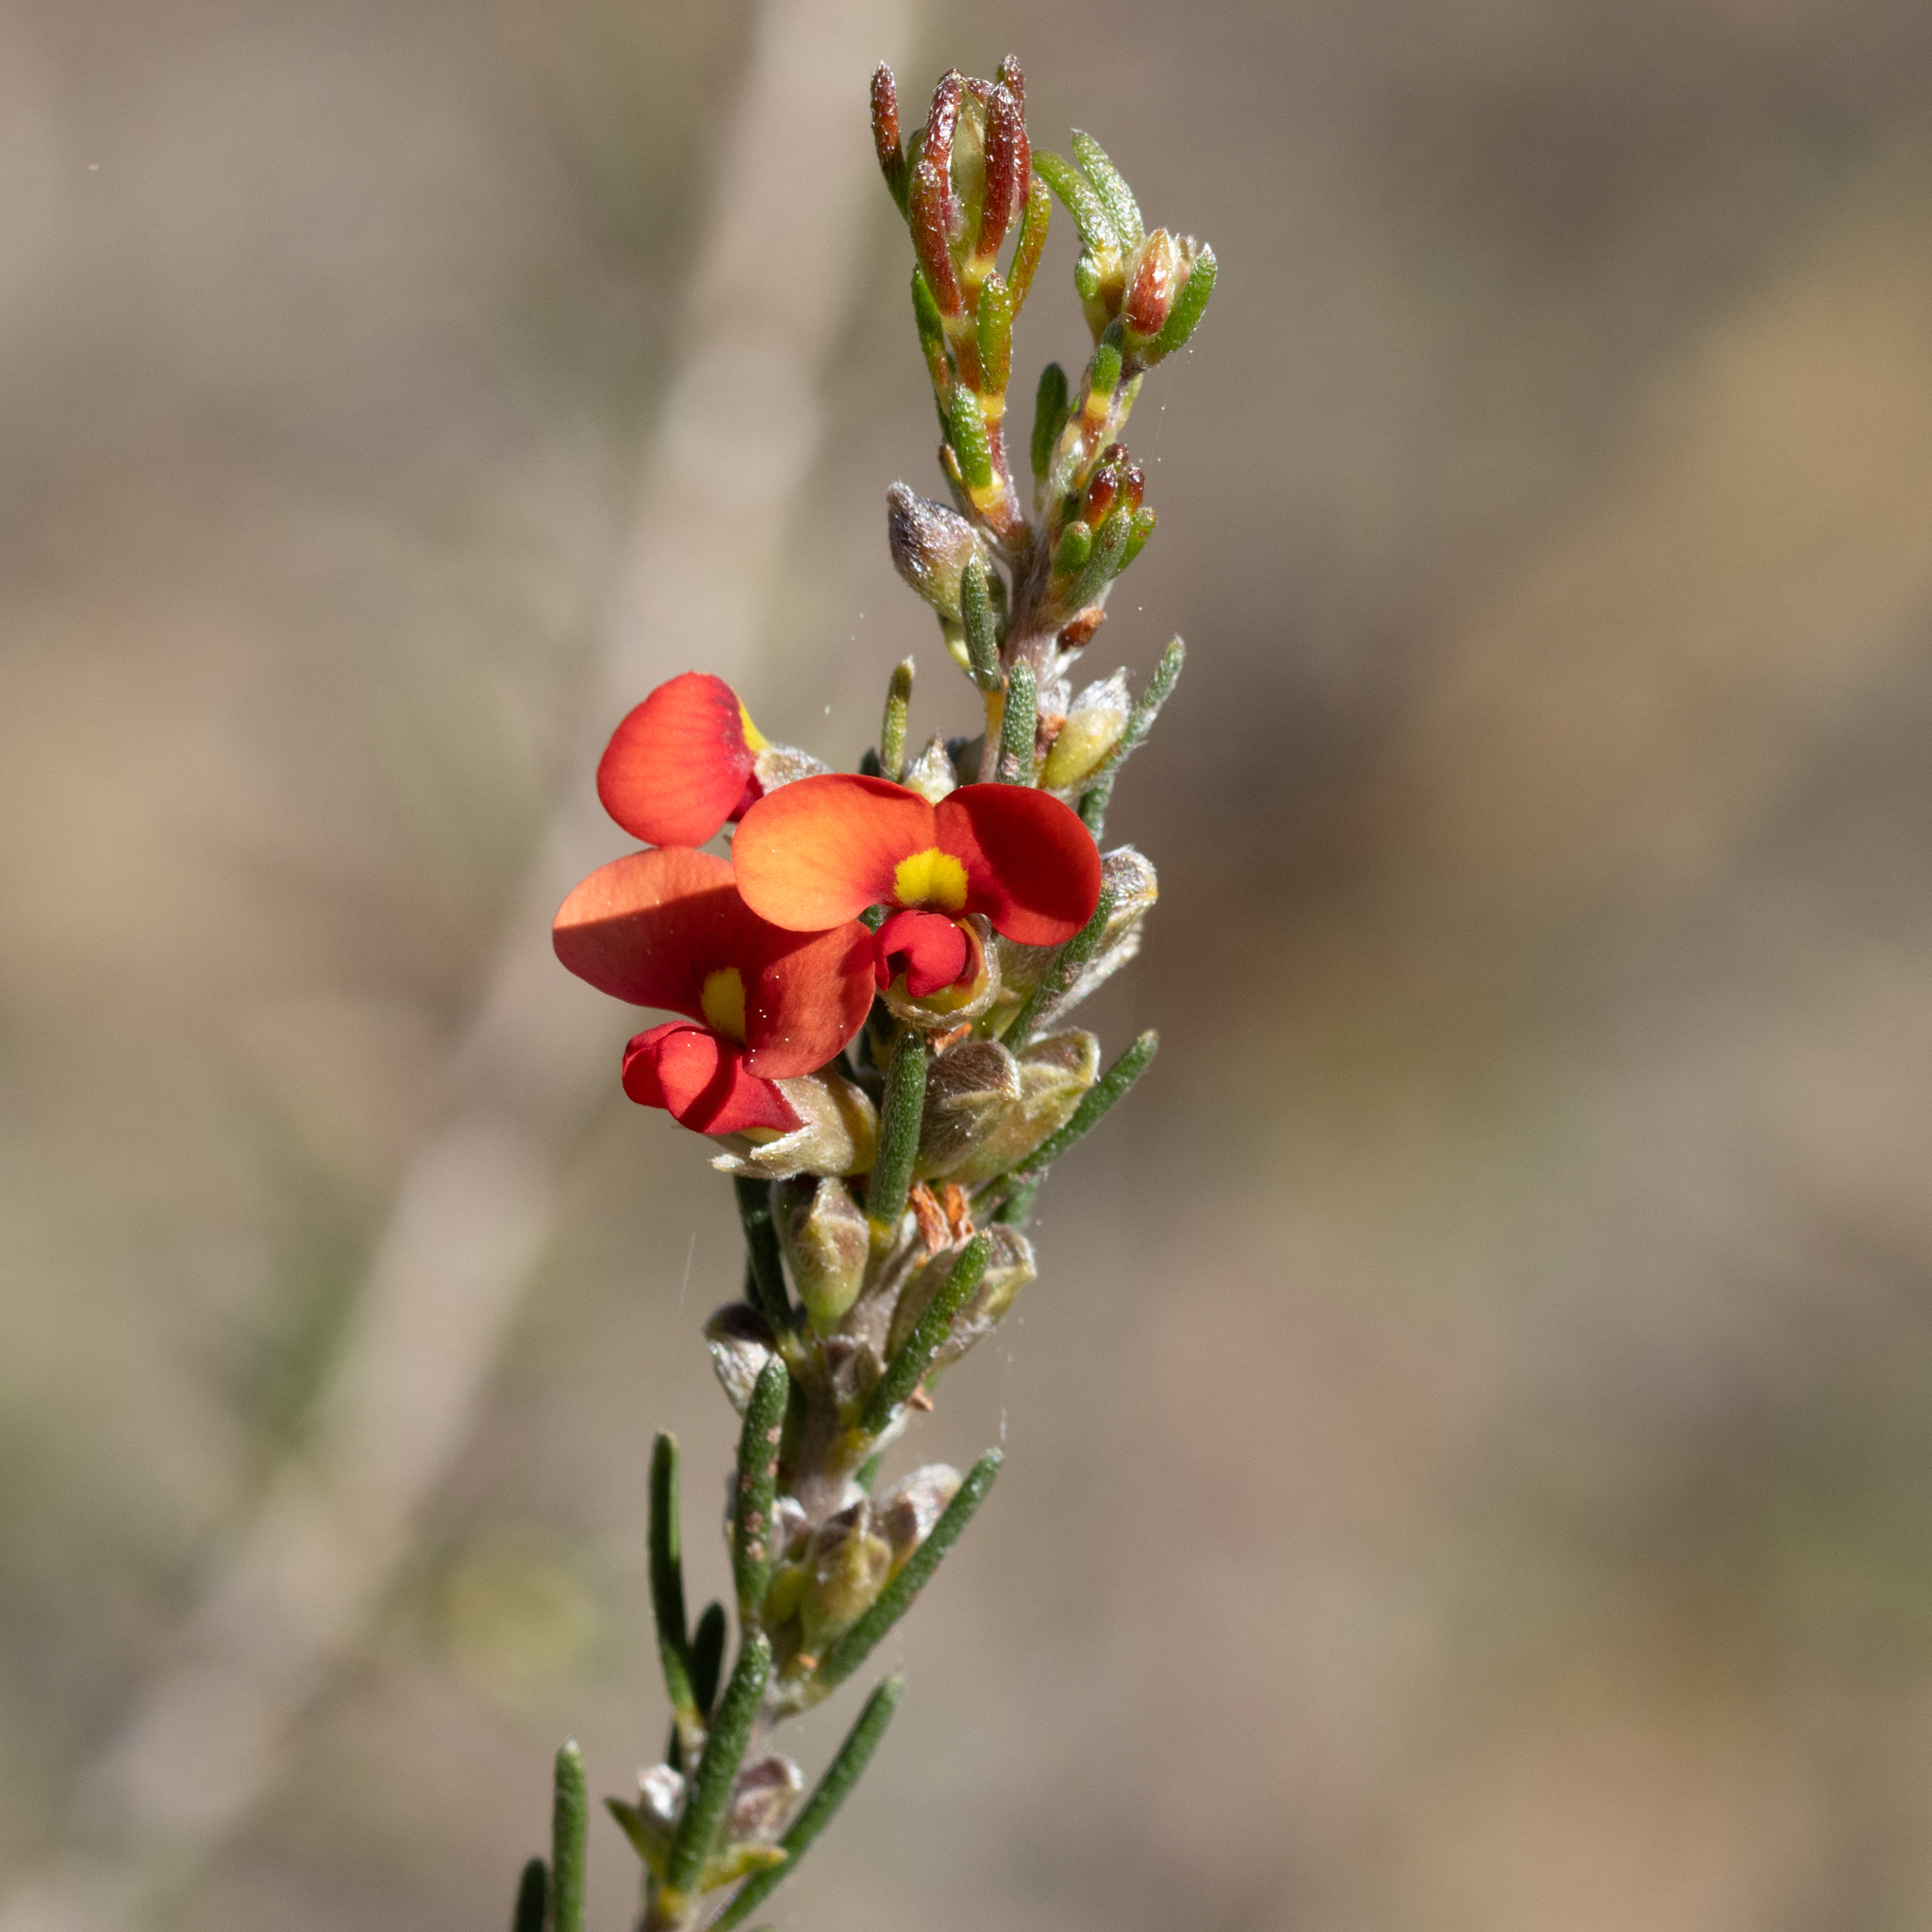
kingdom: Plantae
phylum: Tracheophyta
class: Magnoliopsida
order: Fabales
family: Fabaceae
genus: Dillwynia
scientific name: Dillwynia sericea
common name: Showy parrot-pea
